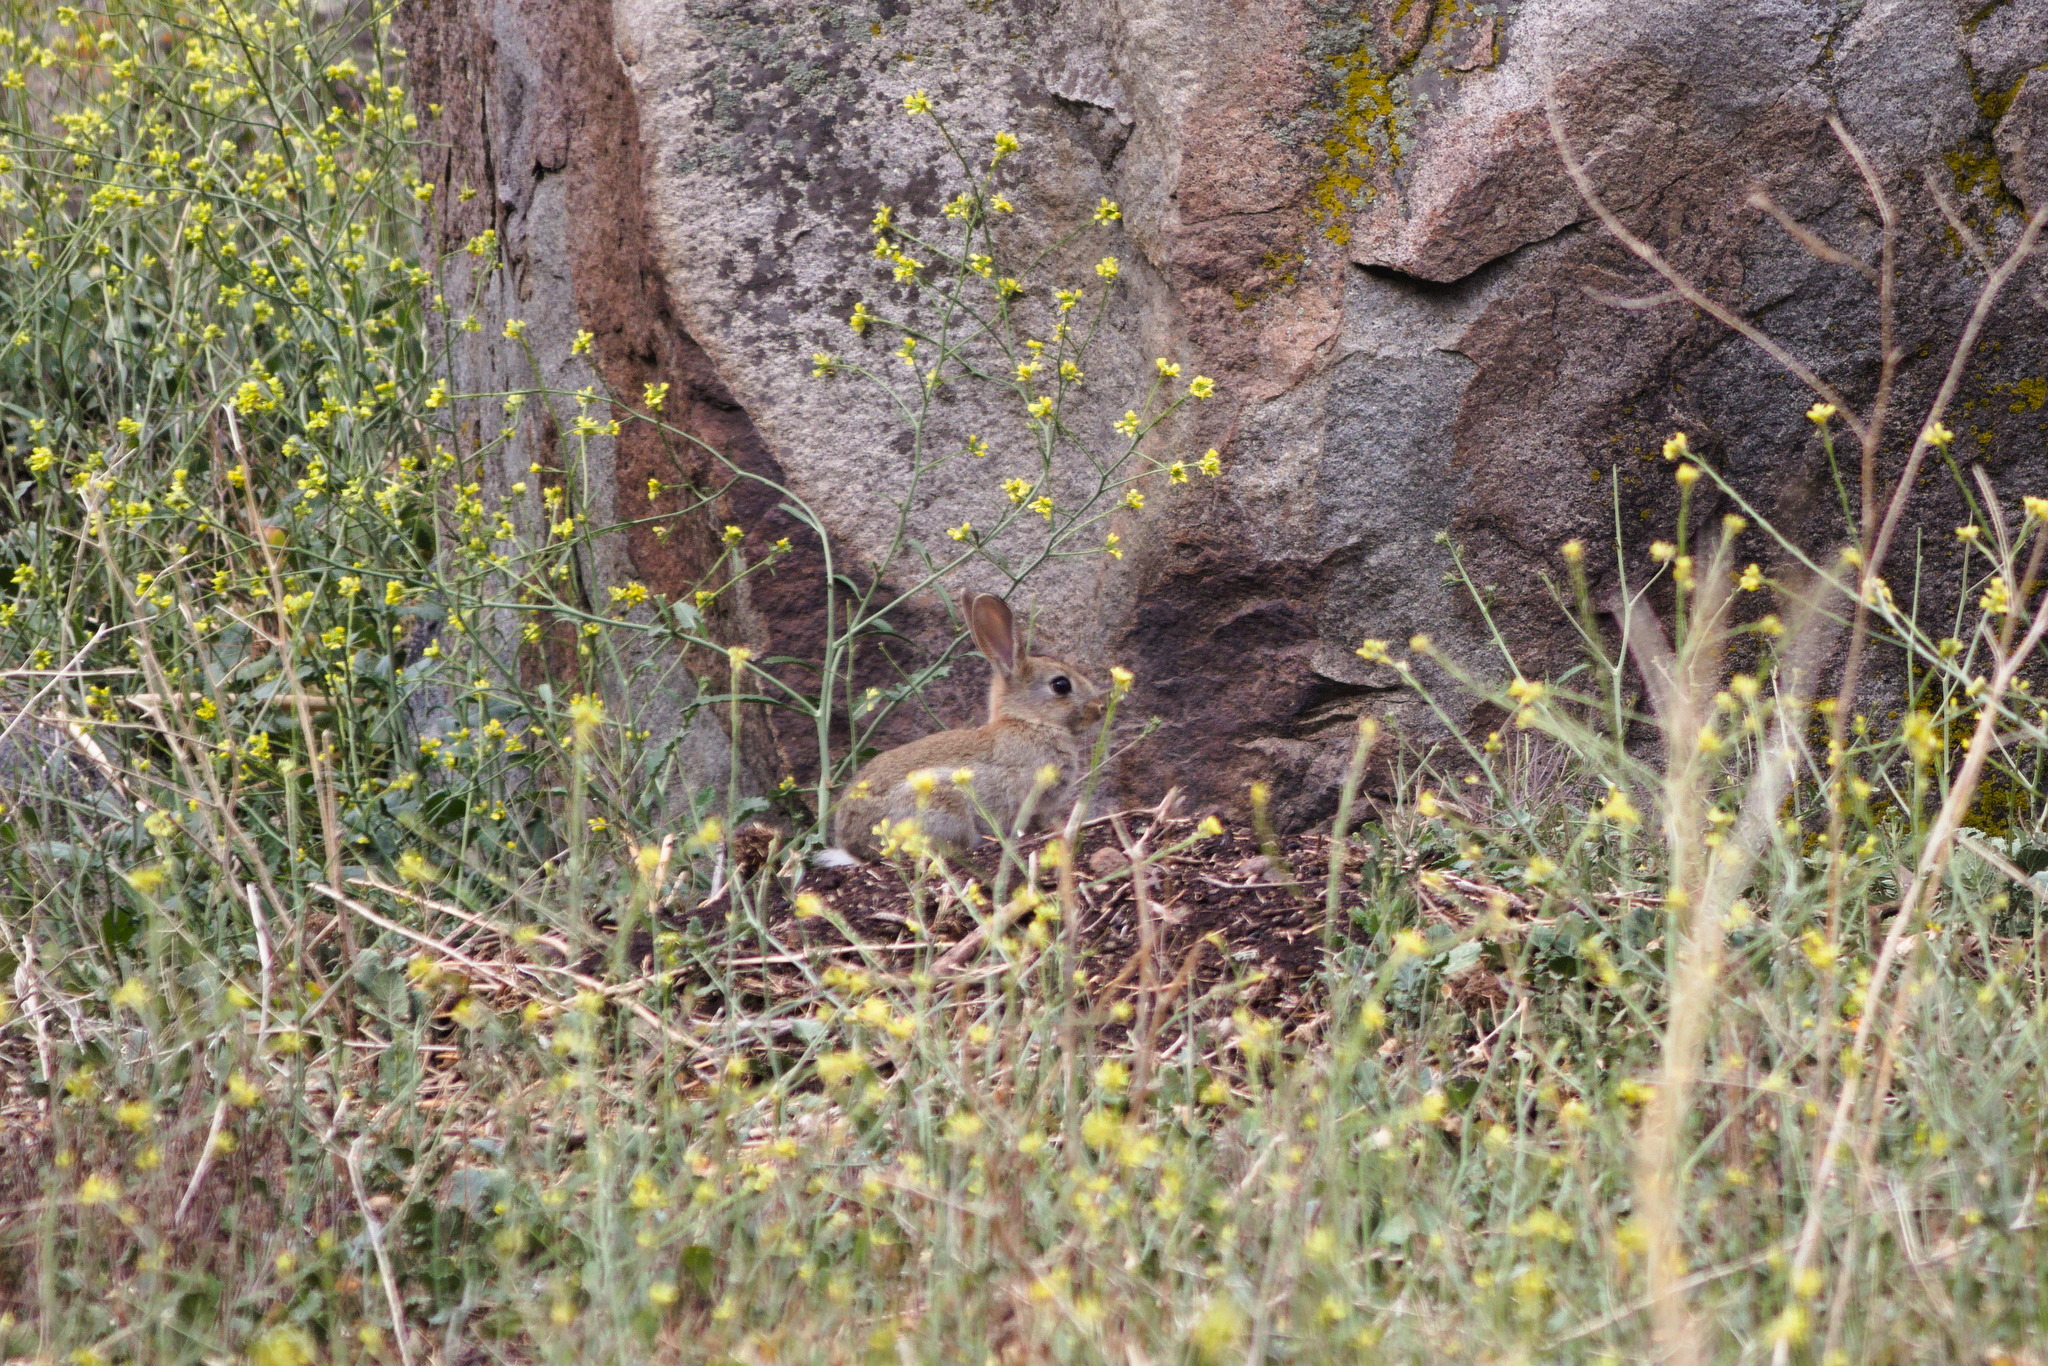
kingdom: Animalia
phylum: Chordata
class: Mammalia
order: Lagomorpha
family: Leporidae
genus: Oryctolagus
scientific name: Oryctolagus cuniculus
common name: European rabbit
